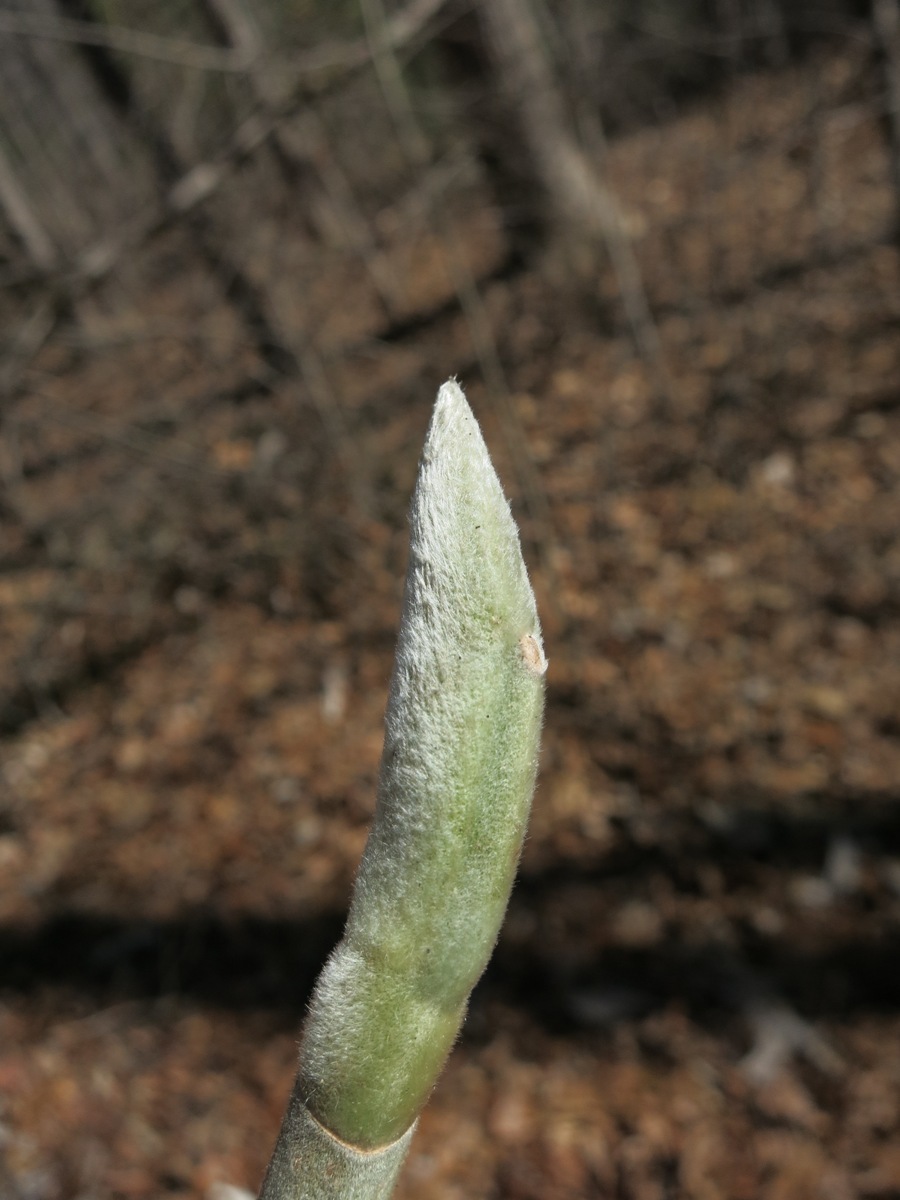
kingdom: Plantae
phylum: Tracheophyta
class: Magnoliopsida
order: Magnoliales
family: Magnoliaceae
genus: Magnolia
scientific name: Magnolia macrophylla
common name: Big-leaf magnolia
